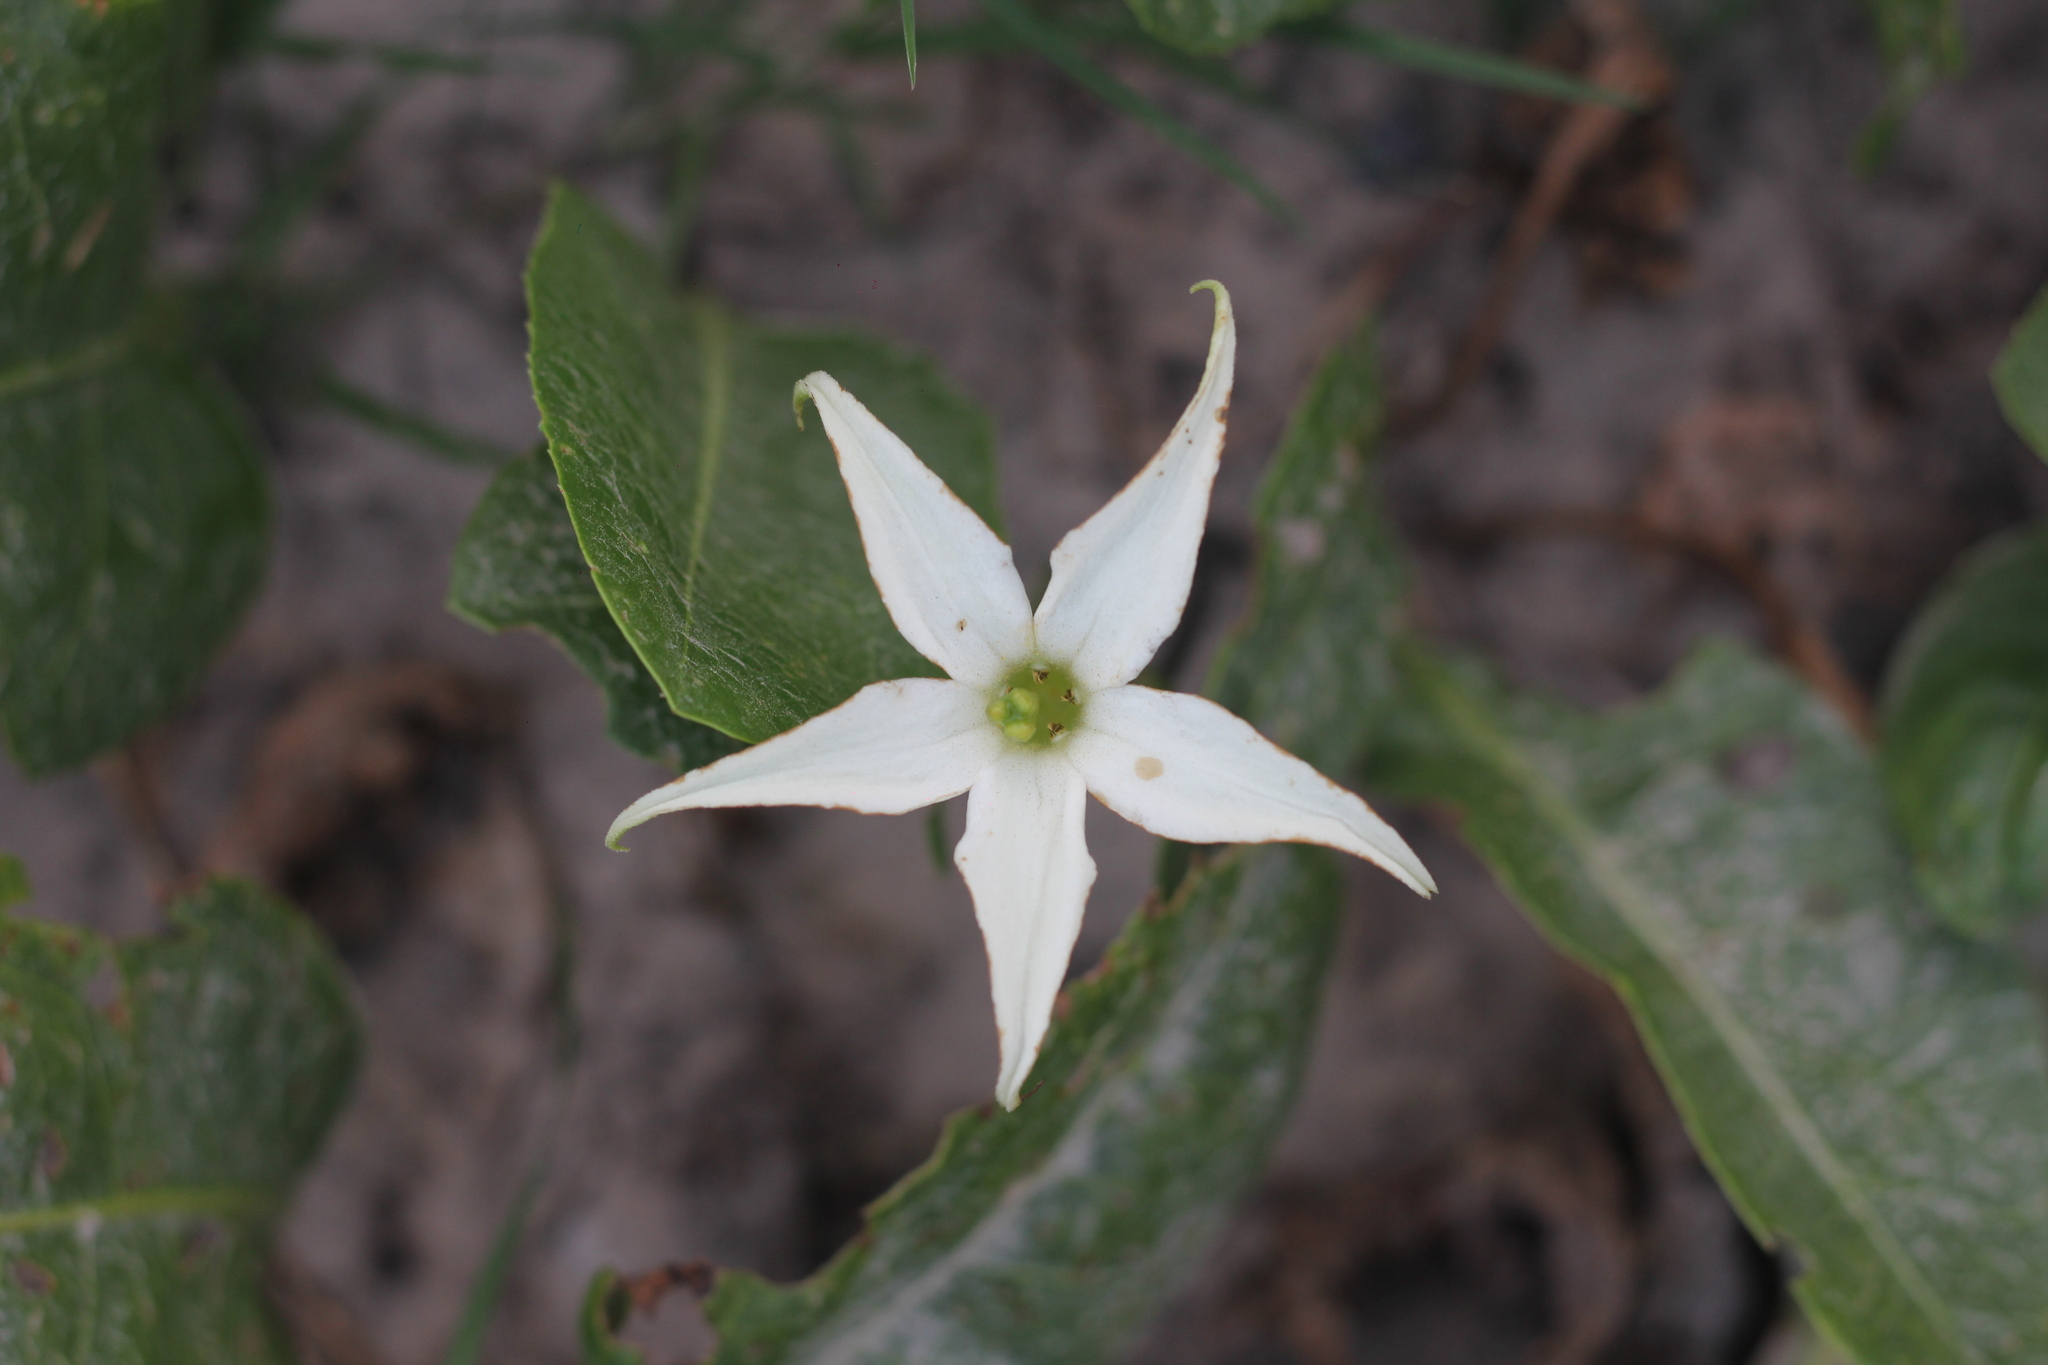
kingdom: Plantae
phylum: Tracheophyta
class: Magnoliopsida
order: Solanales
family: Solanaceae
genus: Jaborosa
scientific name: Jaborosa integrifolia
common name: Springblossom
